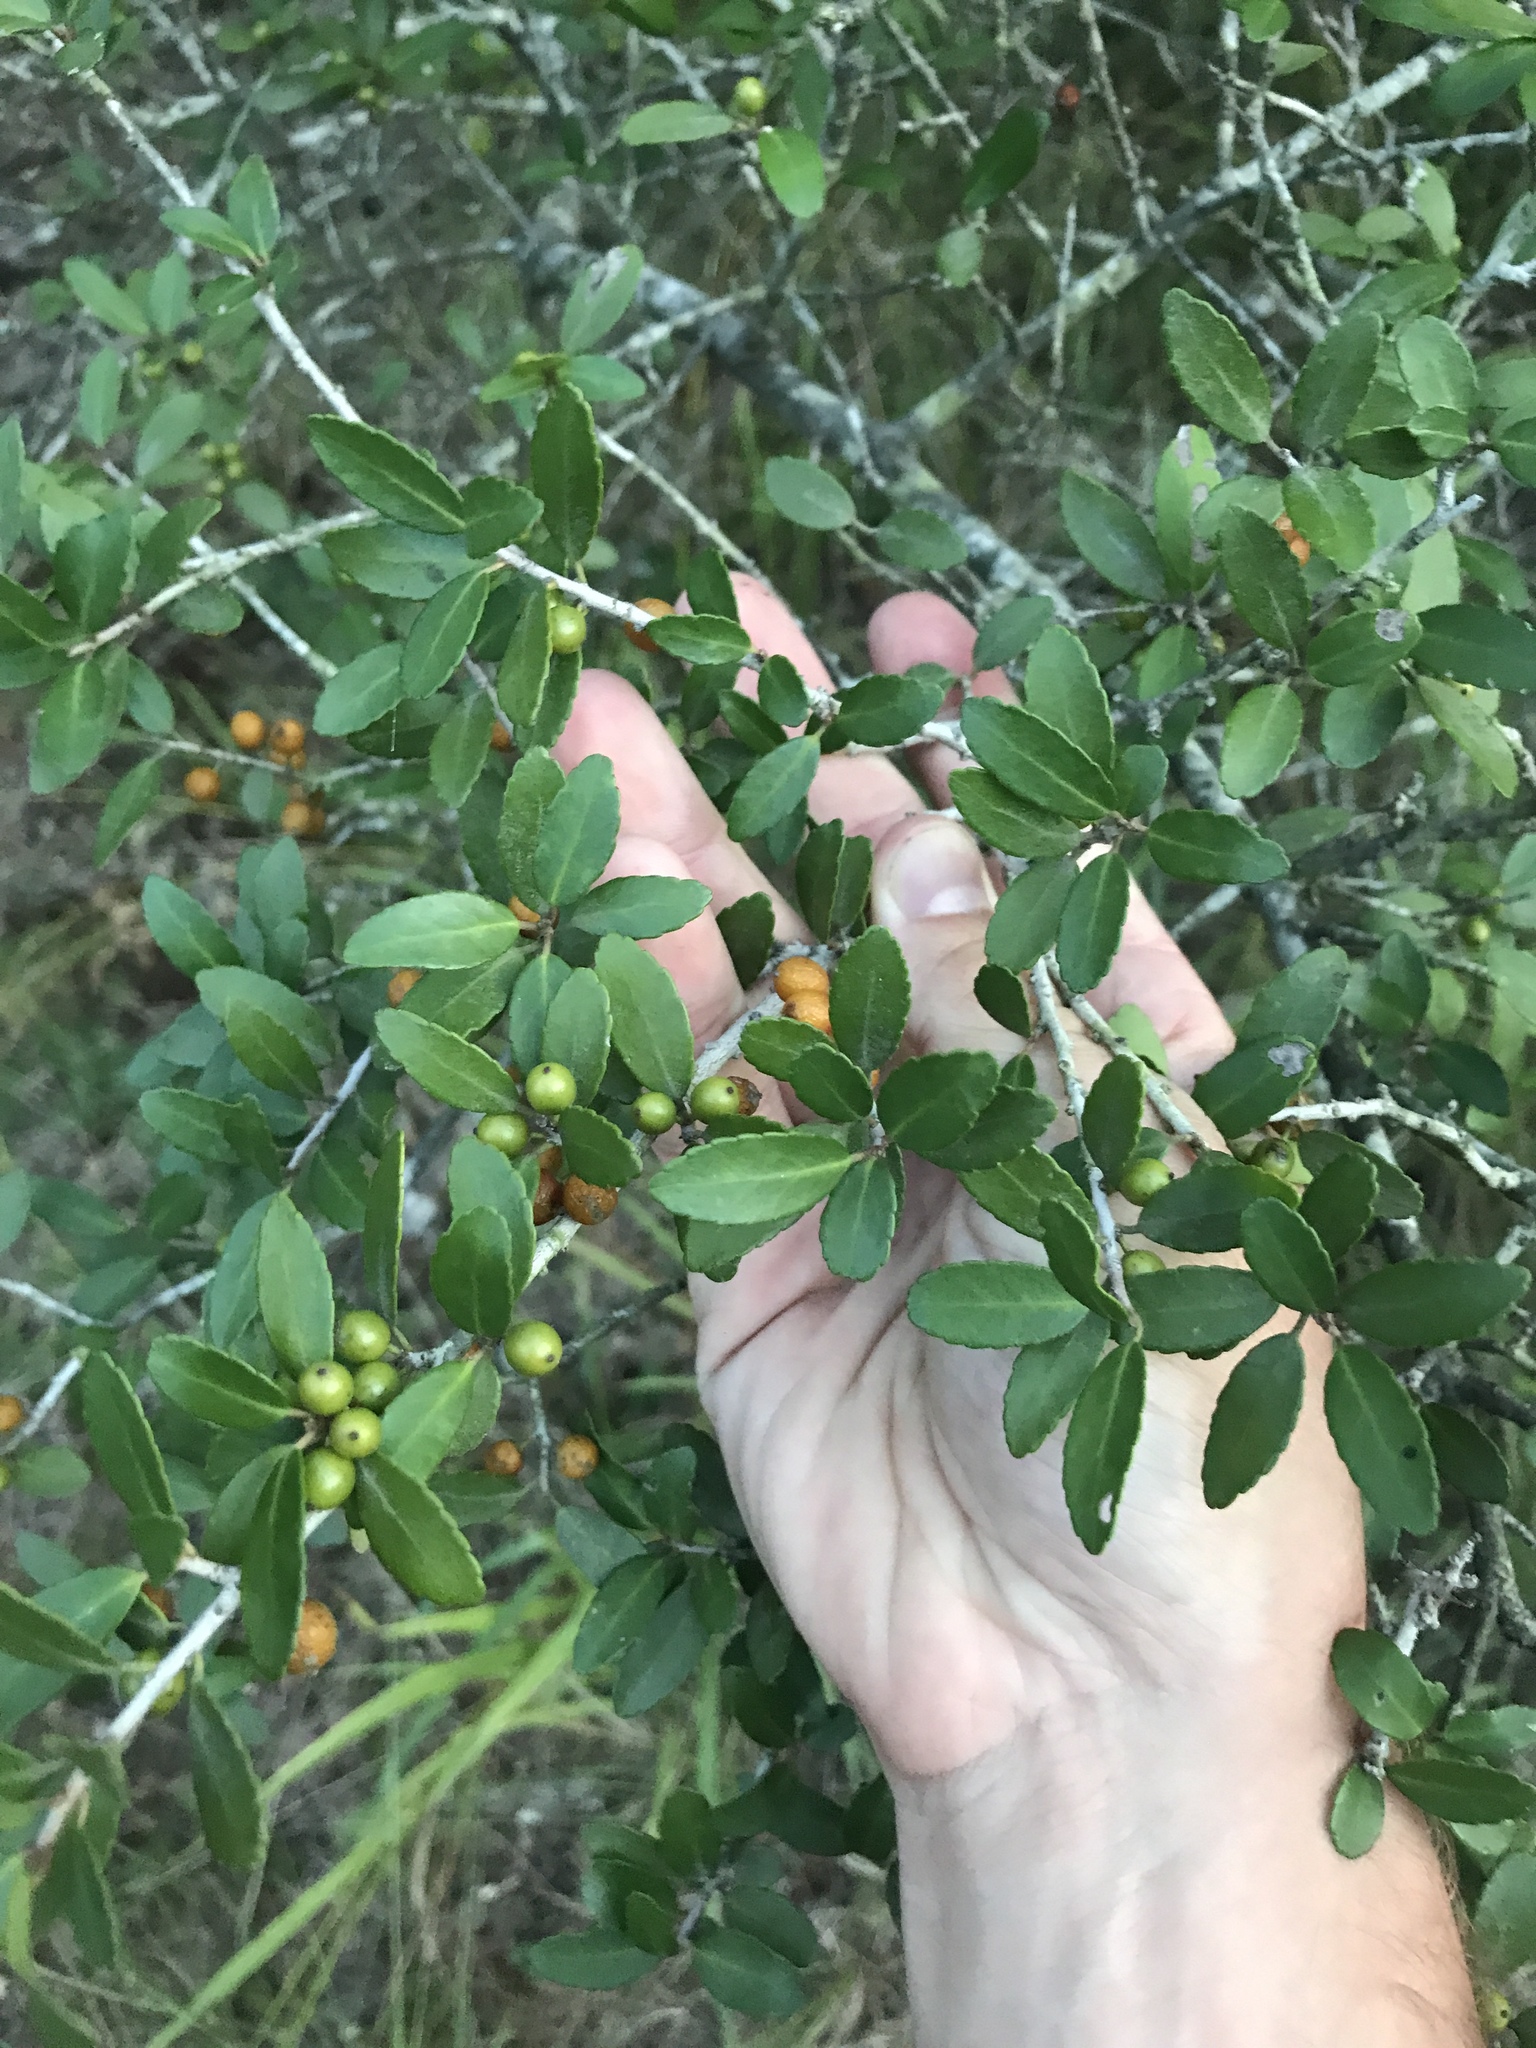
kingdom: Plantae
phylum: Tracheophyta
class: Magnoliopsida
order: Aquifoliales
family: Aquifoliaceae
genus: Ilex
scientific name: Ilex vomitoria
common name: Yaupon holly
